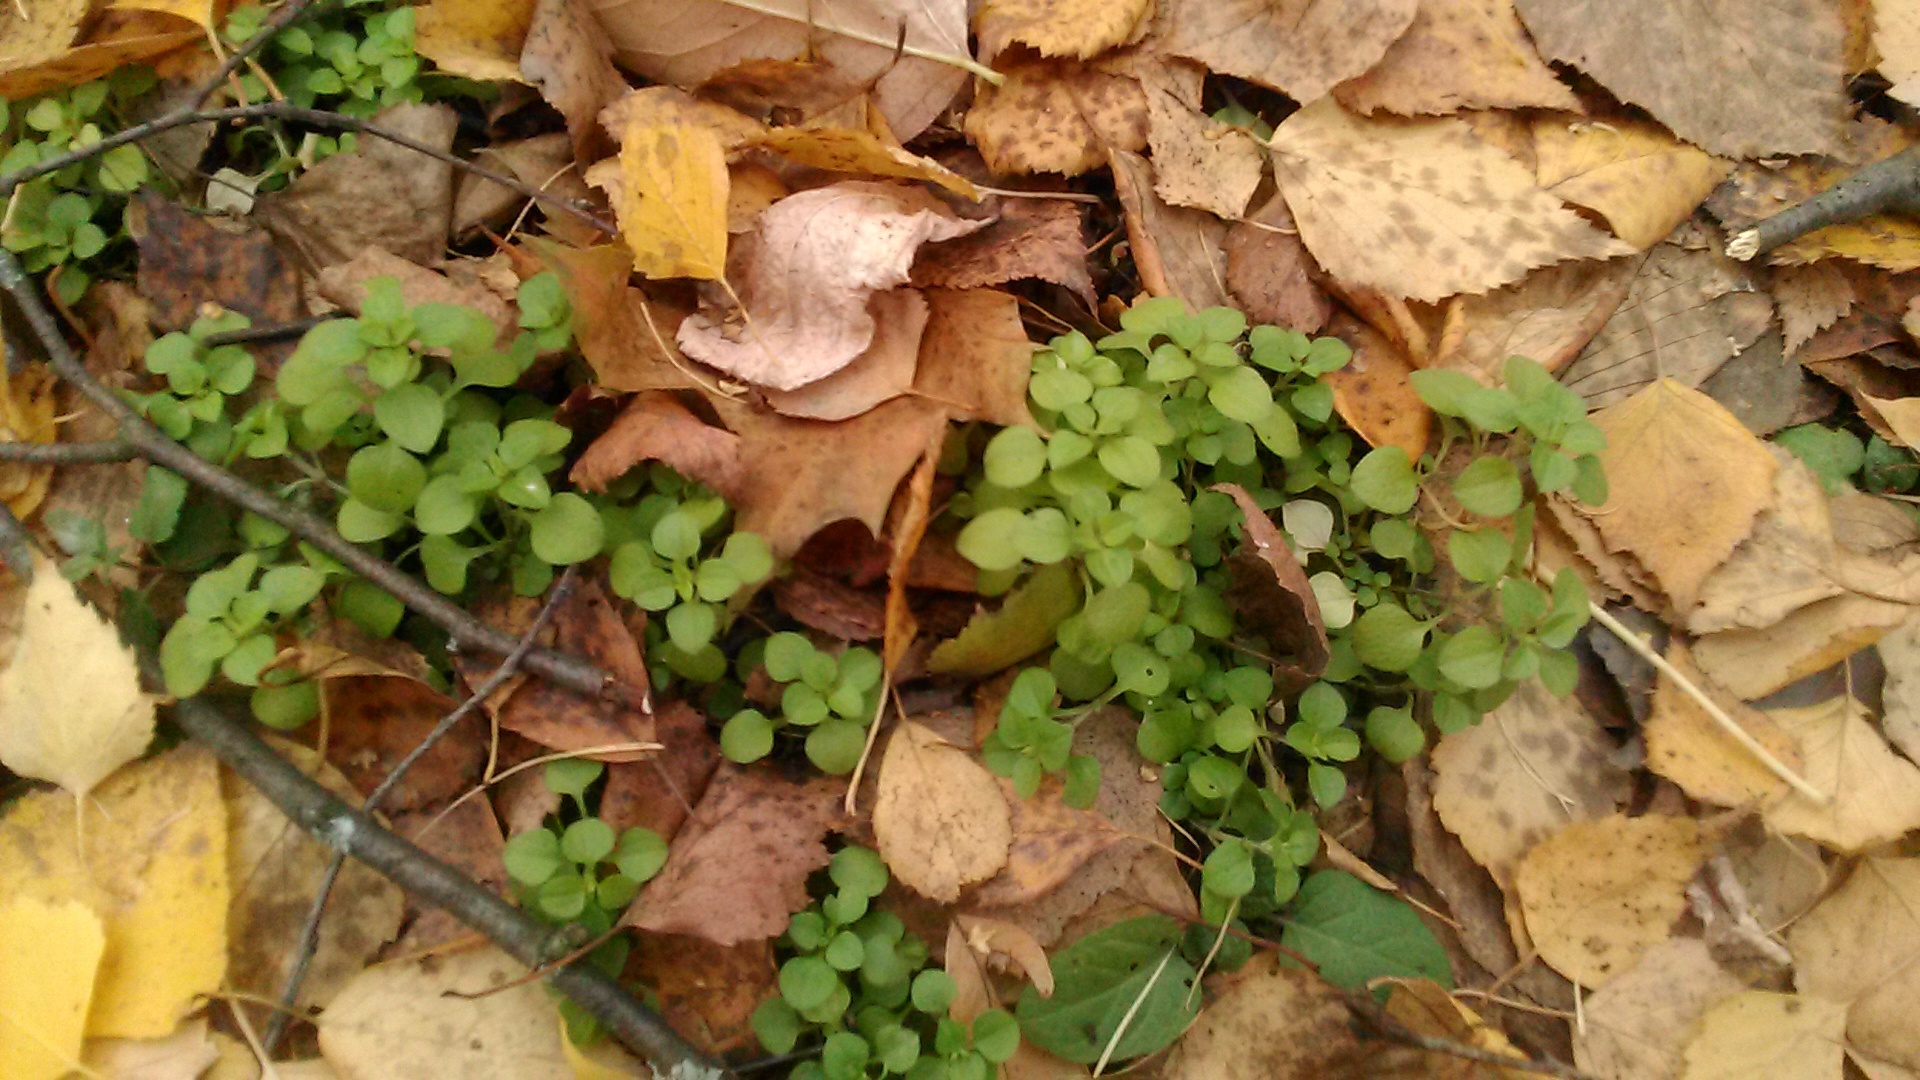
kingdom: Plantae
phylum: Tracheophyta
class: Magnoliopsida
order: Caryophyllales
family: Caryophyllaceae
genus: Stellaria
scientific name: Stellaria media
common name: Common chickweed
